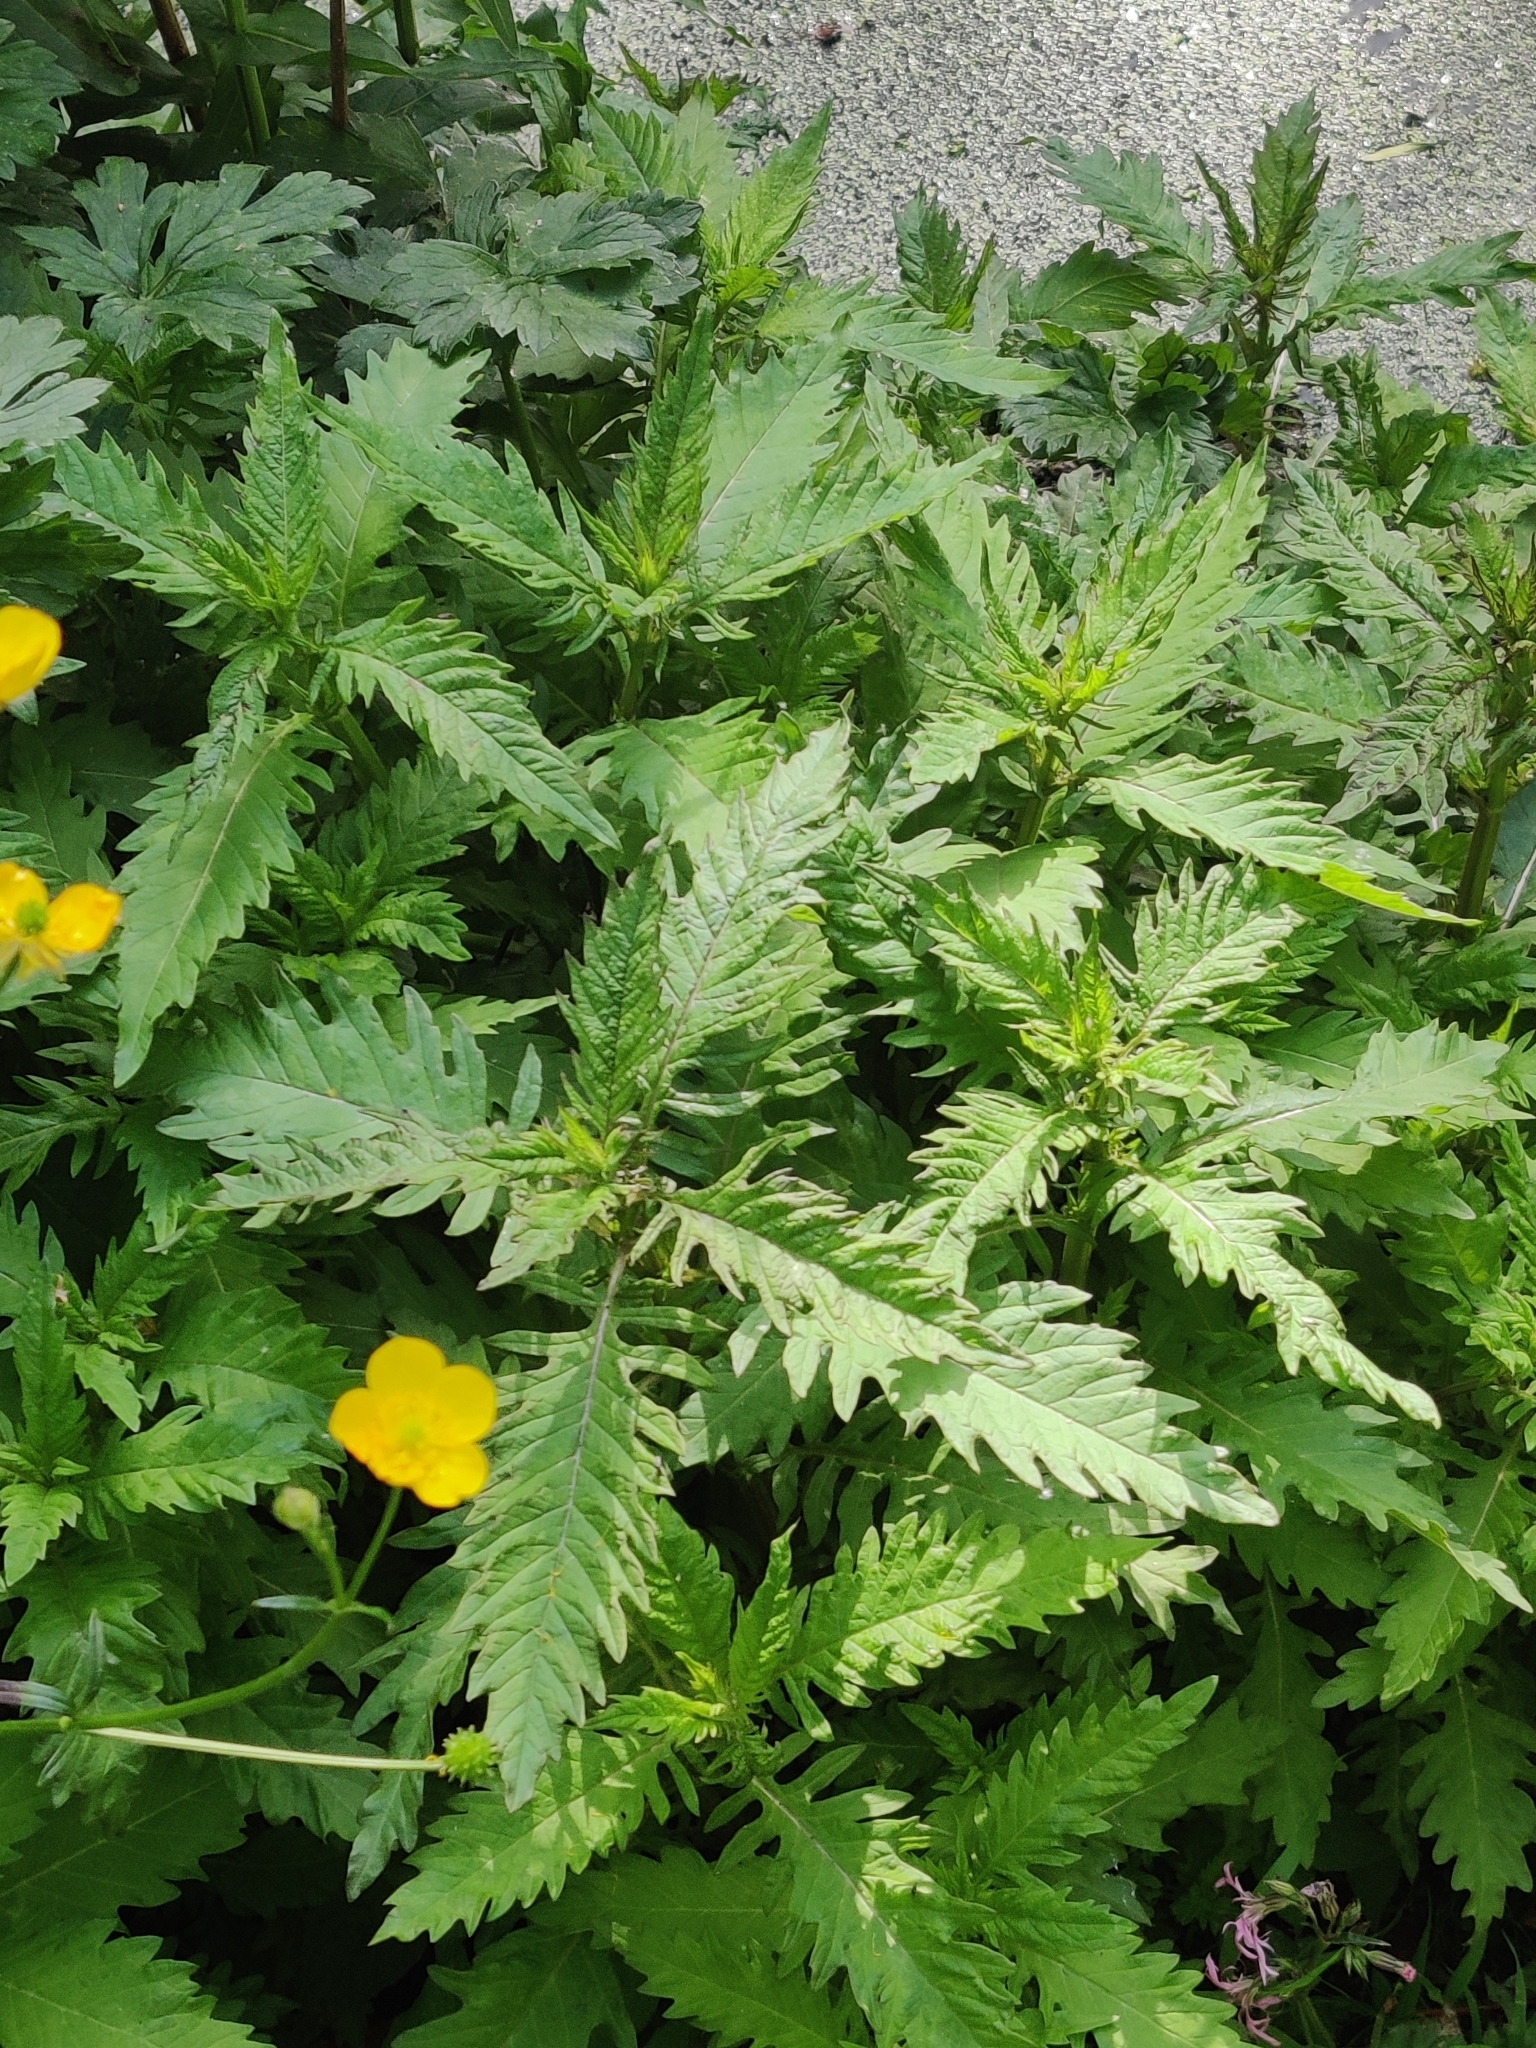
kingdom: Plantae
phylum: Tracheophyta
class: Magnoliopsida
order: Lamiales
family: Lamiaceae
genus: Lycopus
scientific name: Lycopus europaeus
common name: European bugleweed
